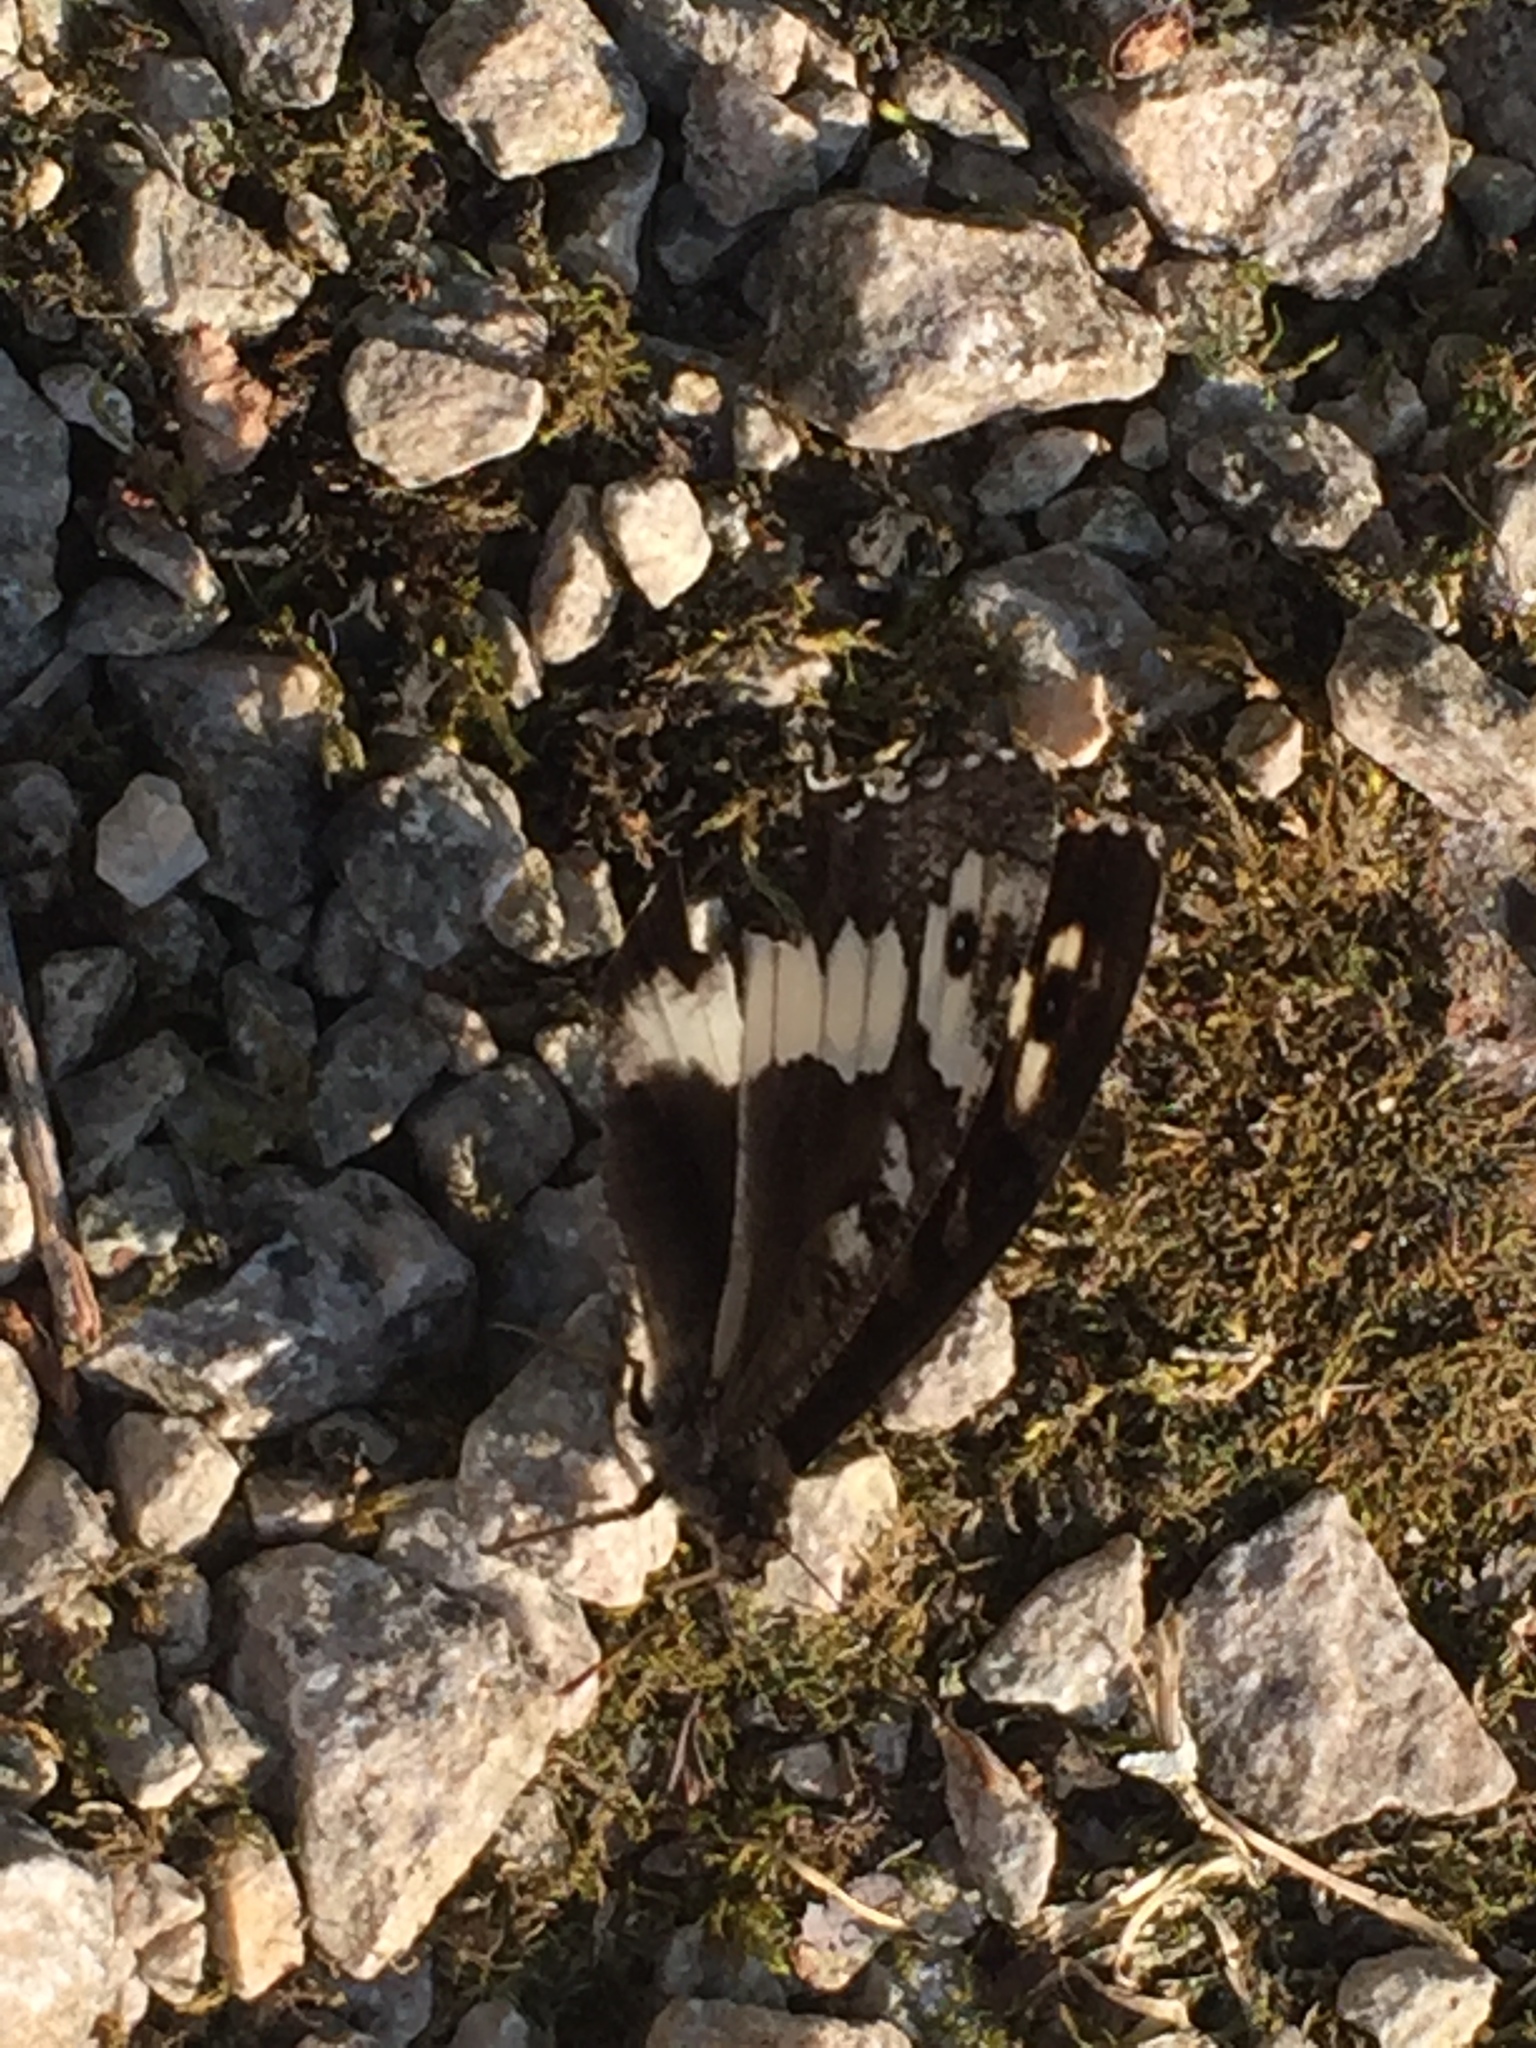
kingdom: Animalia
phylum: Arthropoda
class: Insecta
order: Lepidoptera
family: Lycaenidae
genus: Loweia
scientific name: Loweia tityrus
